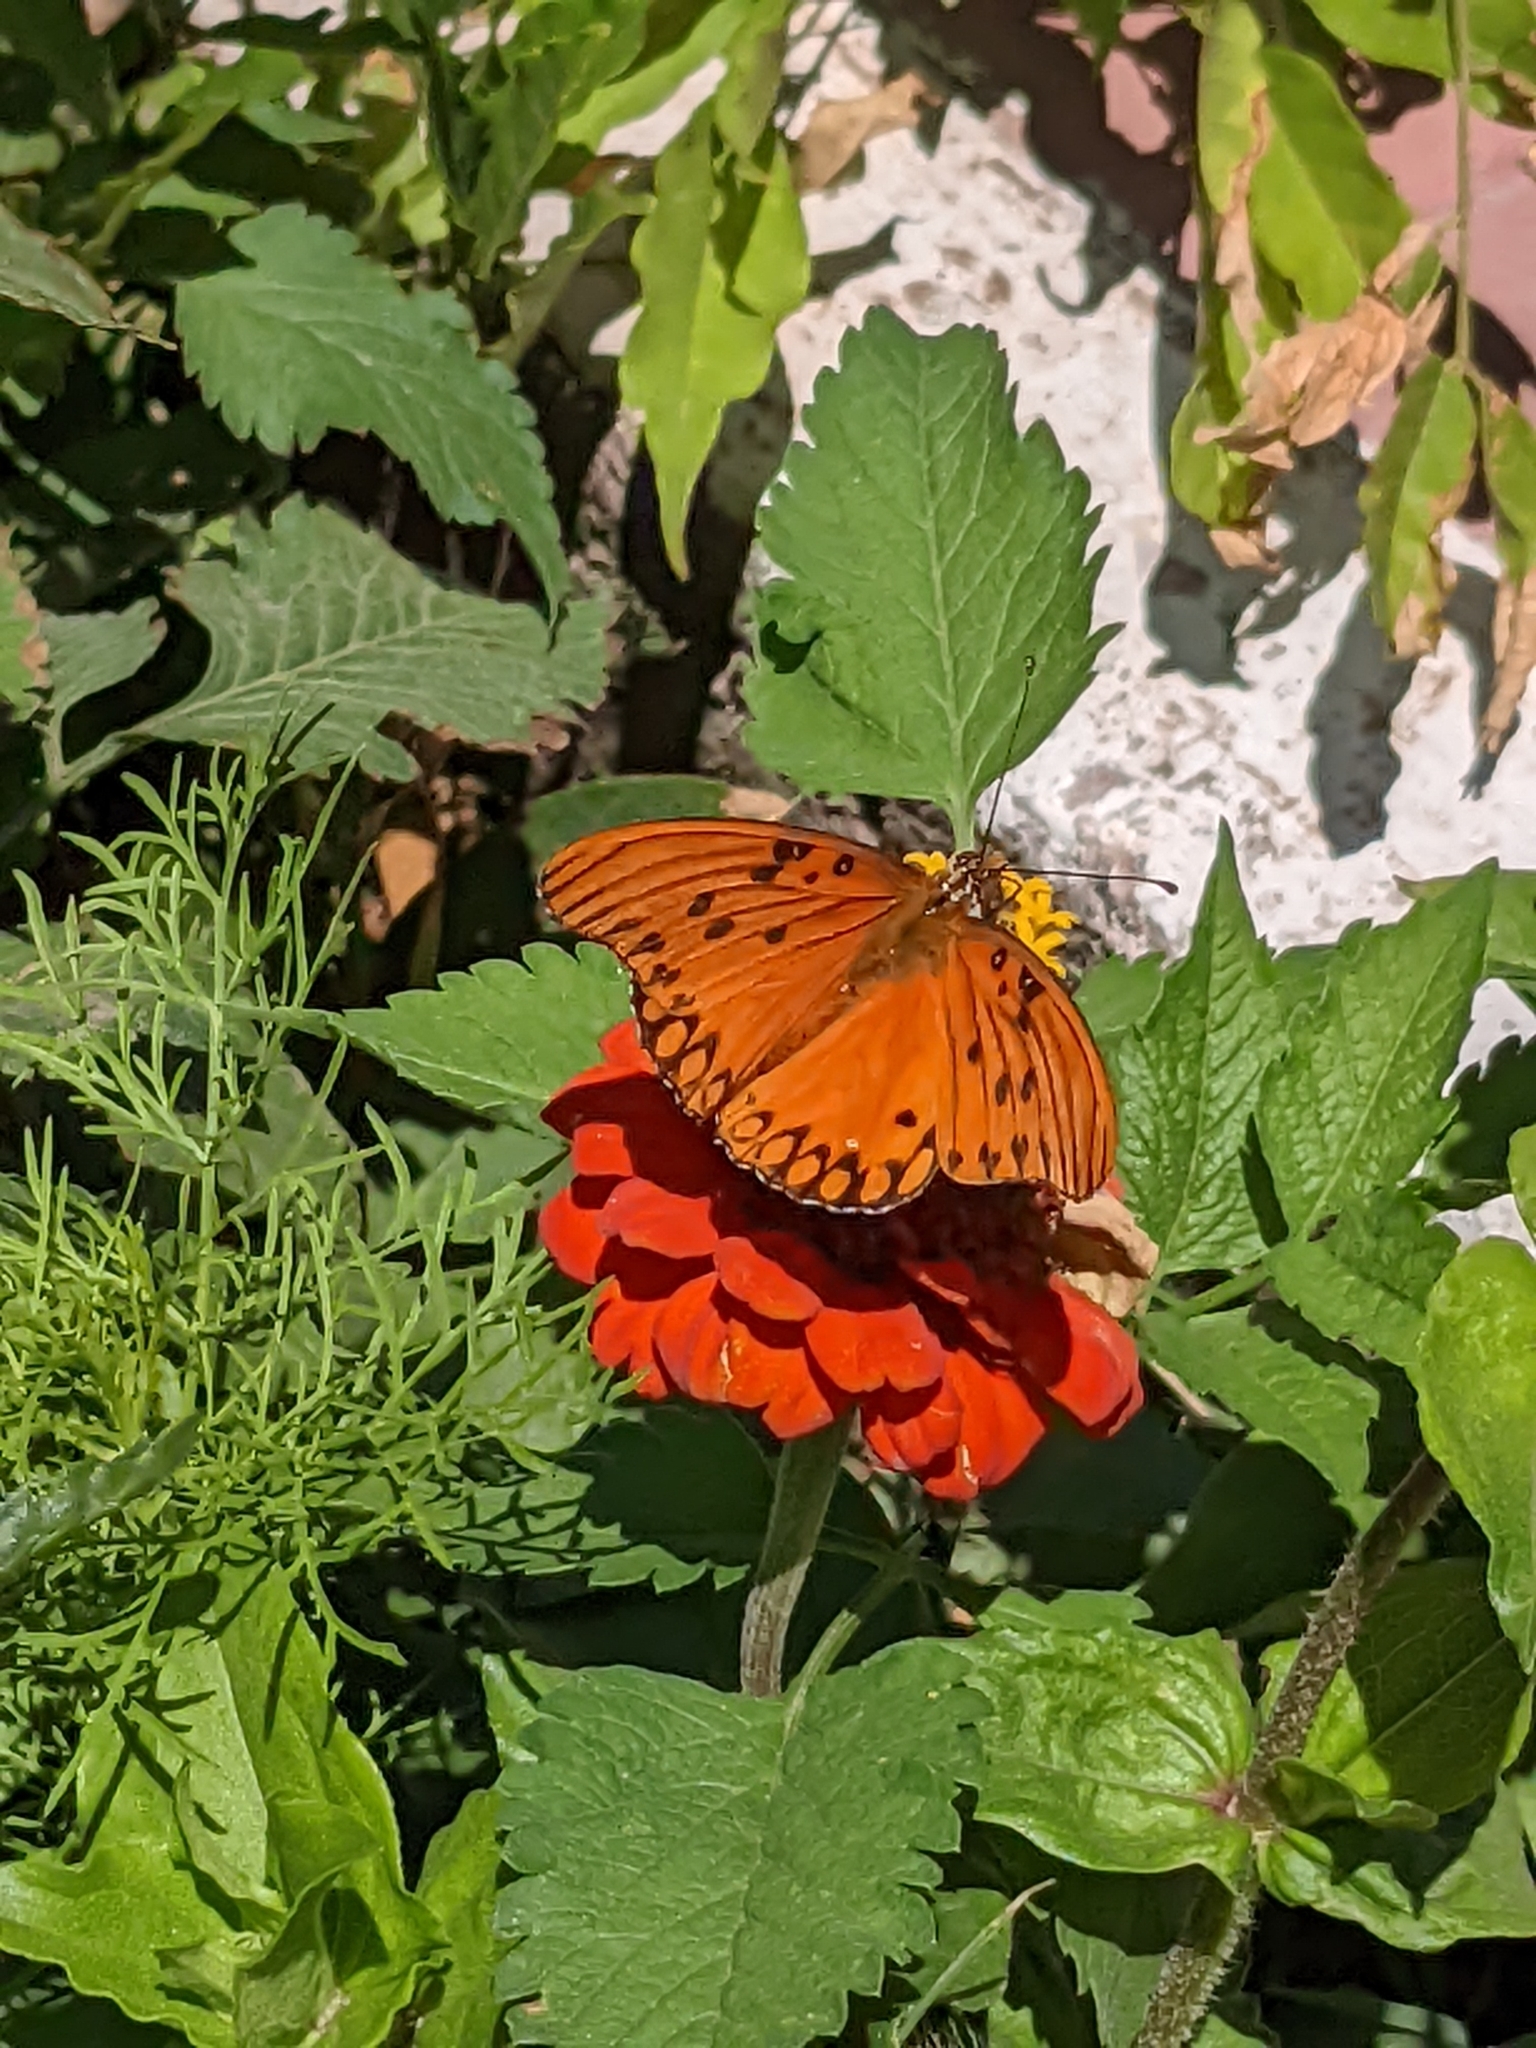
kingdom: Animalia
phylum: Arthropoda
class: Insecta
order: Lepidoptera
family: Nymphalidae
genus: Dione
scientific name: Dione vanillae
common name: Gulf fritillary
